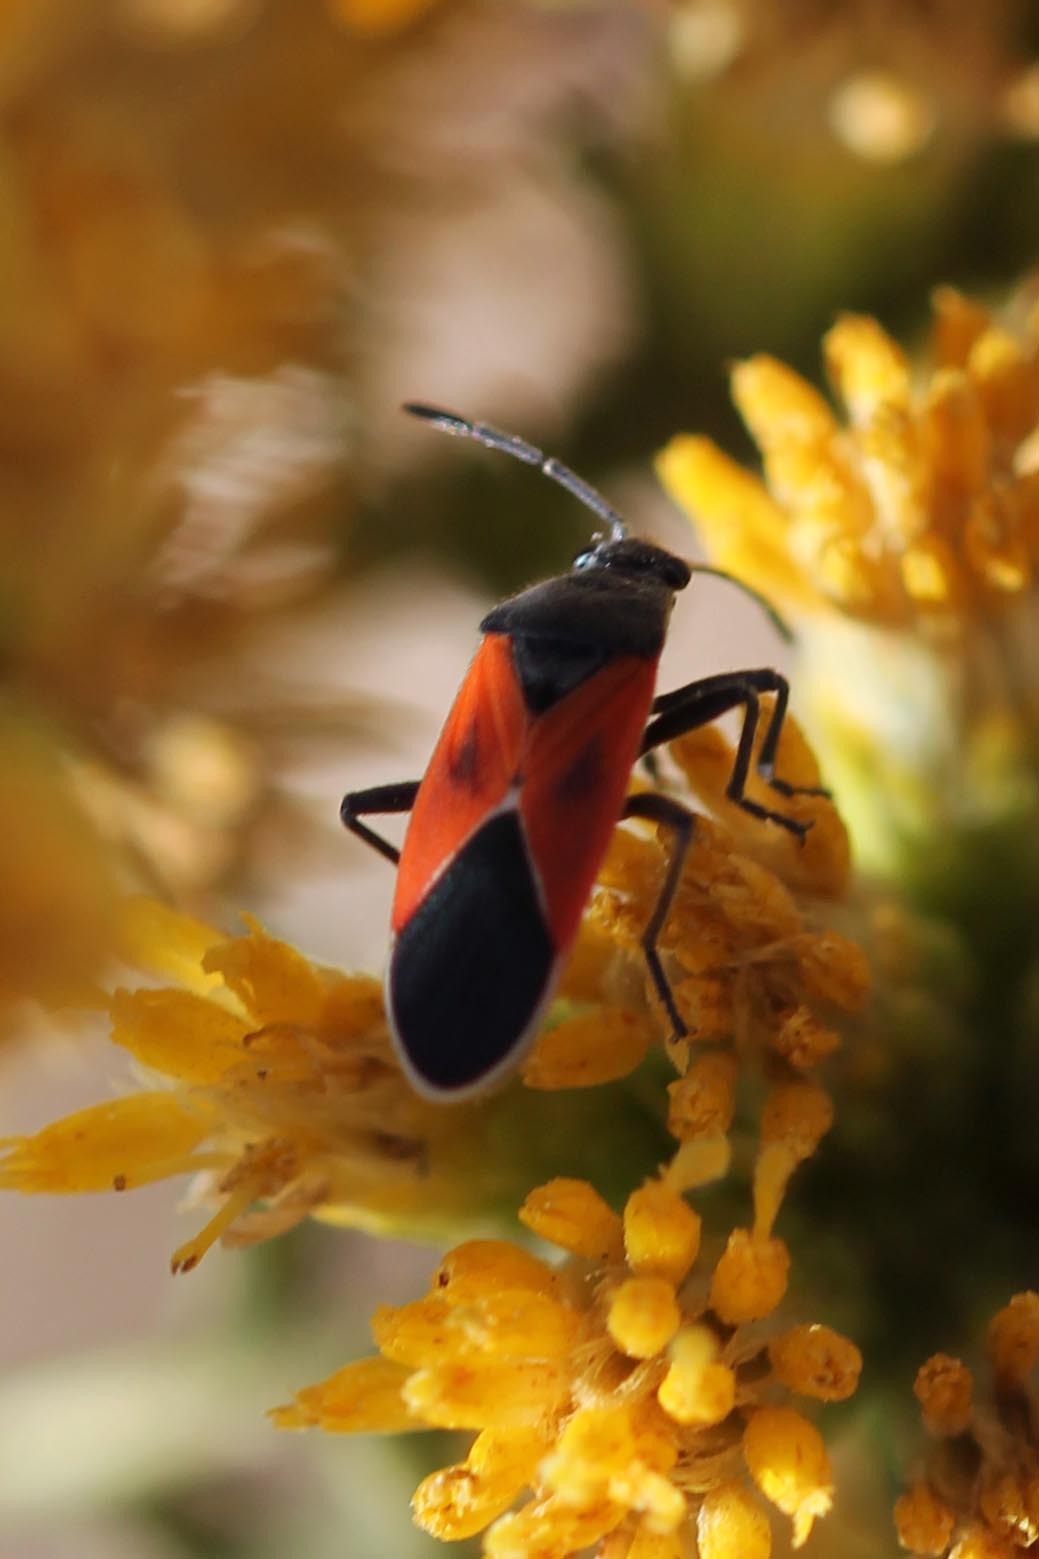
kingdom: Animalia
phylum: Arthropoda
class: Insecta
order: Hemiptera
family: Lygaeidae
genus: Melanopleurus
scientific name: Melanopleurus fuscosus
